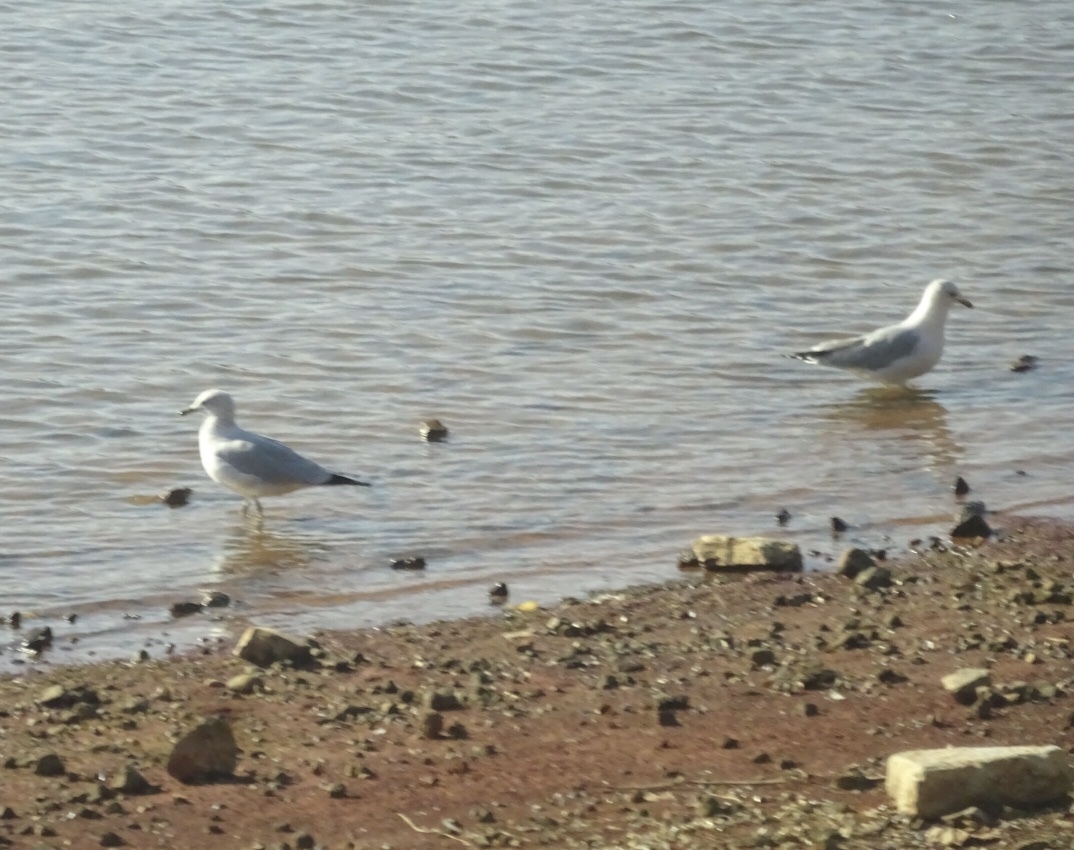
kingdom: Animalia
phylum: Chordata
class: Aves
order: Charadriiformes
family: Laridae
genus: Larus
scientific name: Larus delawarensis
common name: Ring-billed gull
